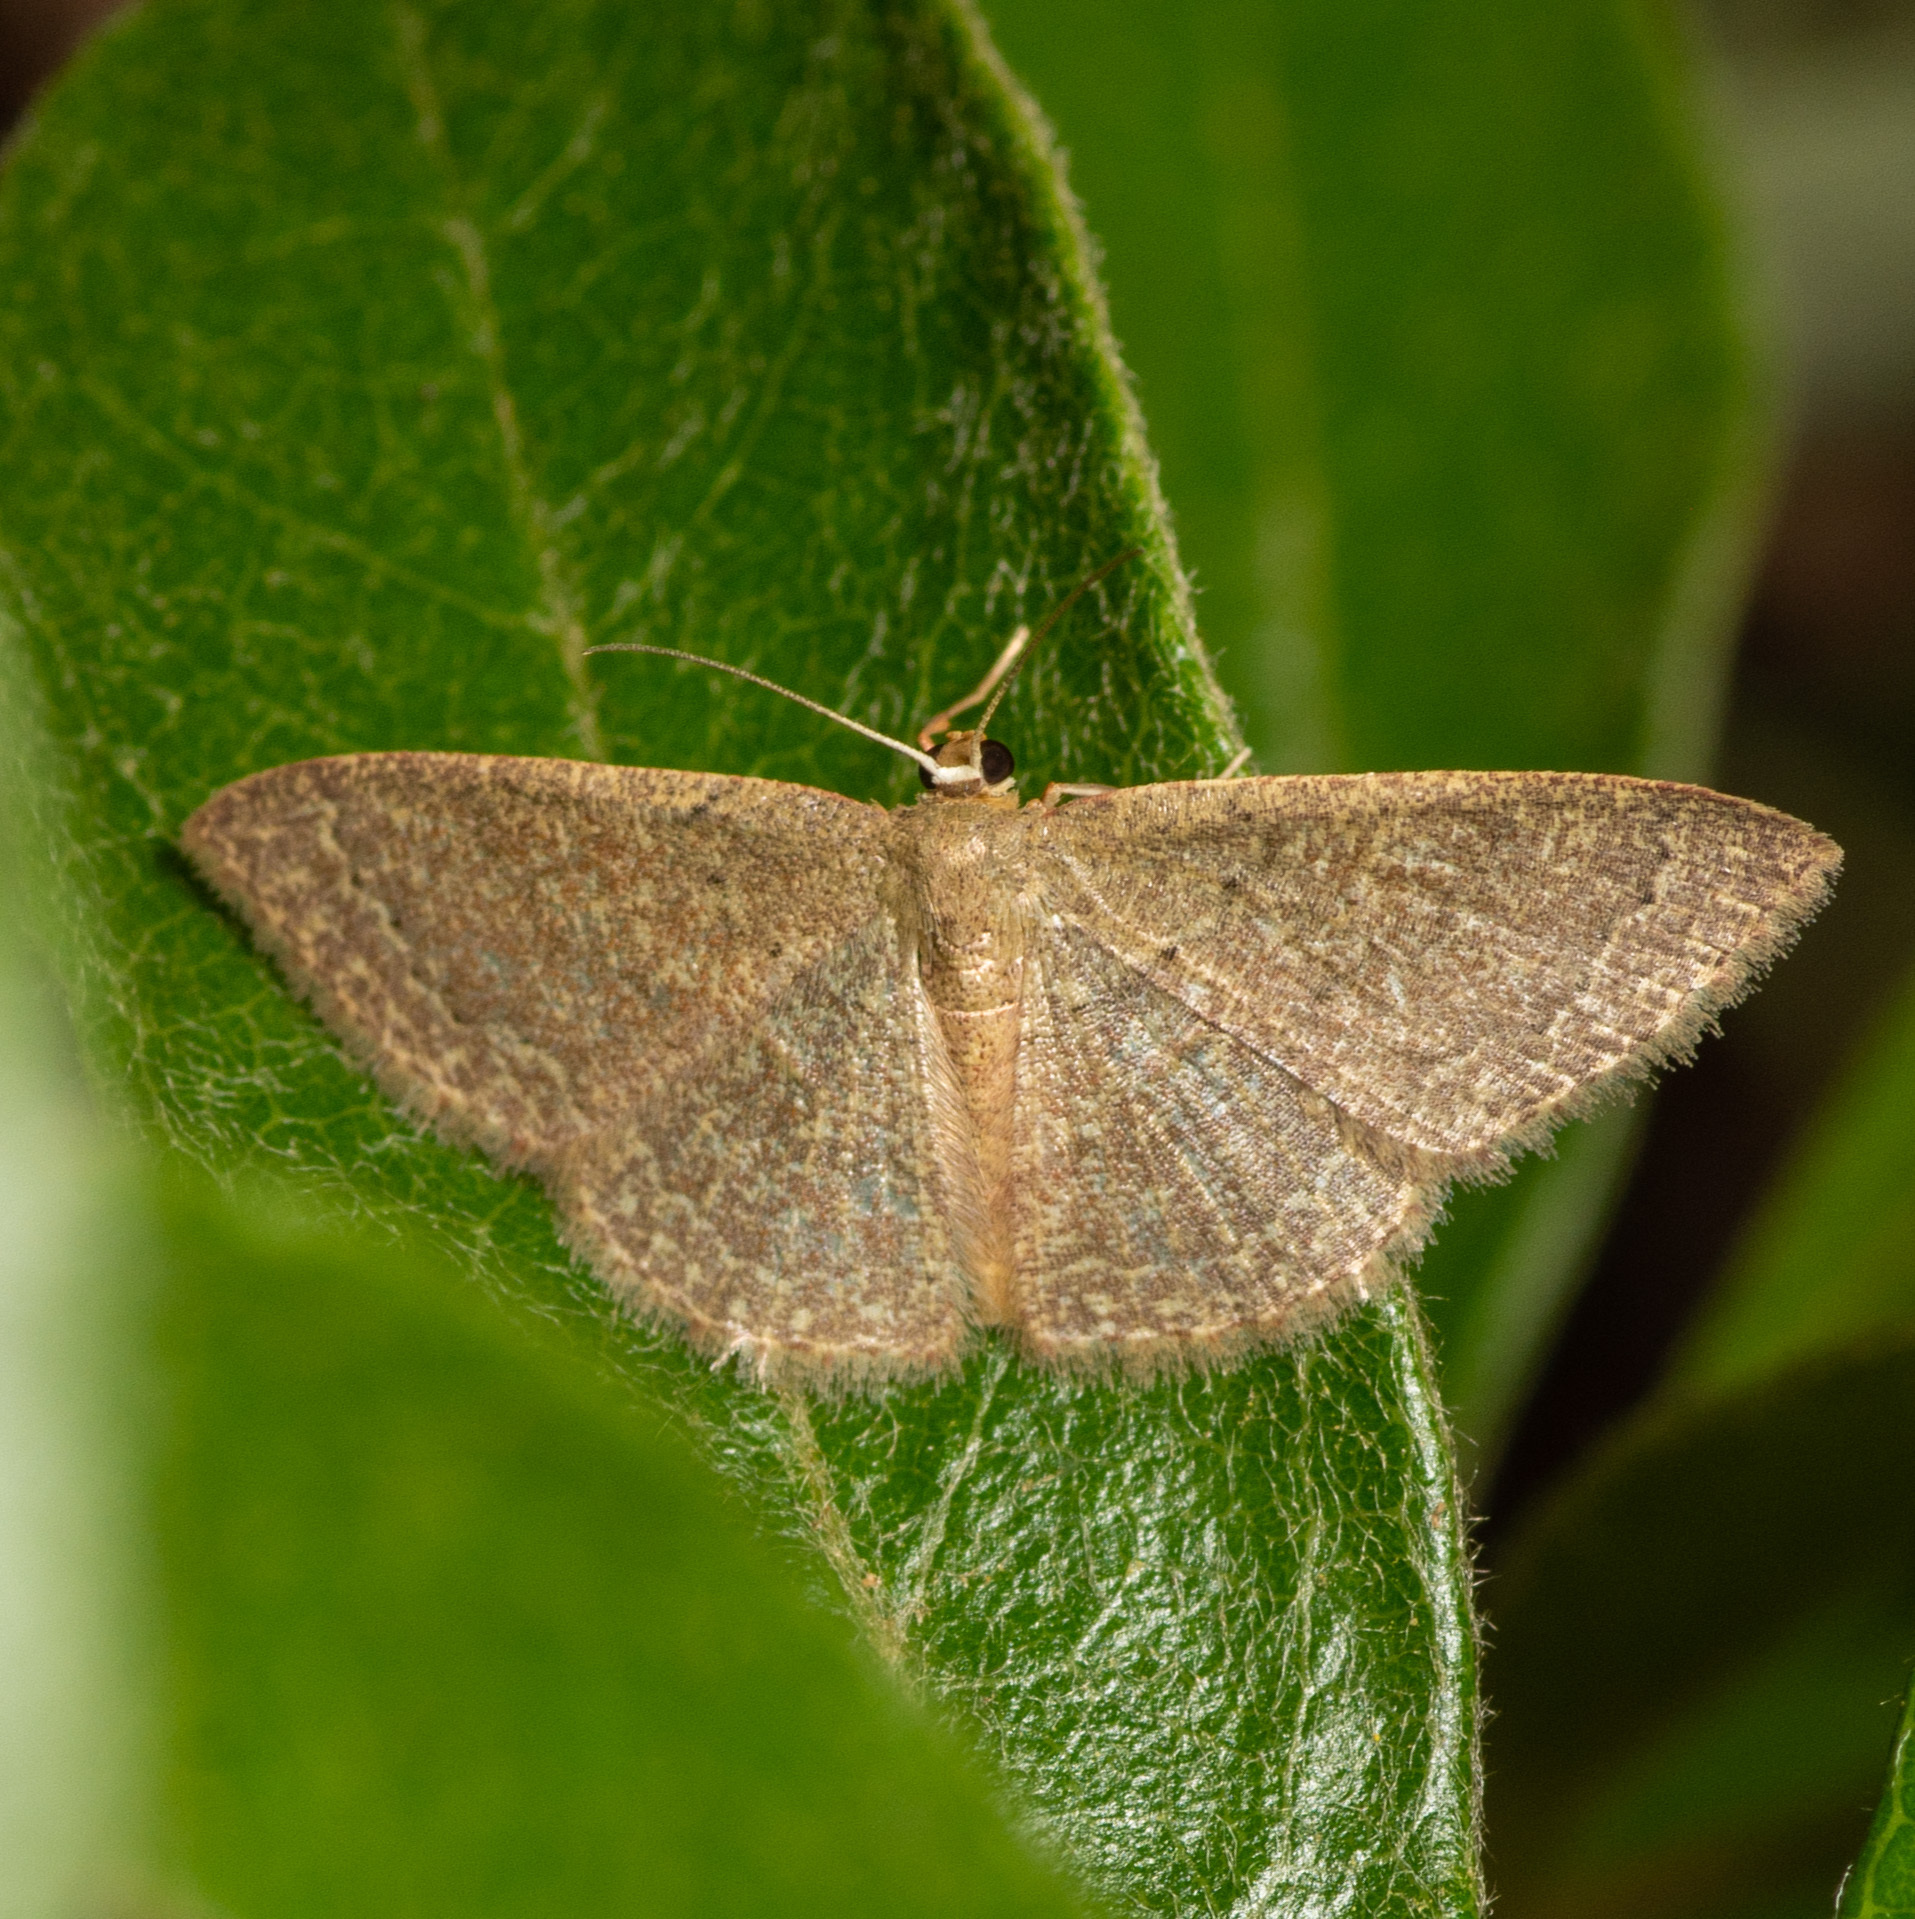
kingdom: Animalia
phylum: Arthropoda
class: Insecta
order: Lepidoptera
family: Geometridae
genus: Pleuroprucha
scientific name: Pleuroprucha insulsaria
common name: Common tan wave
